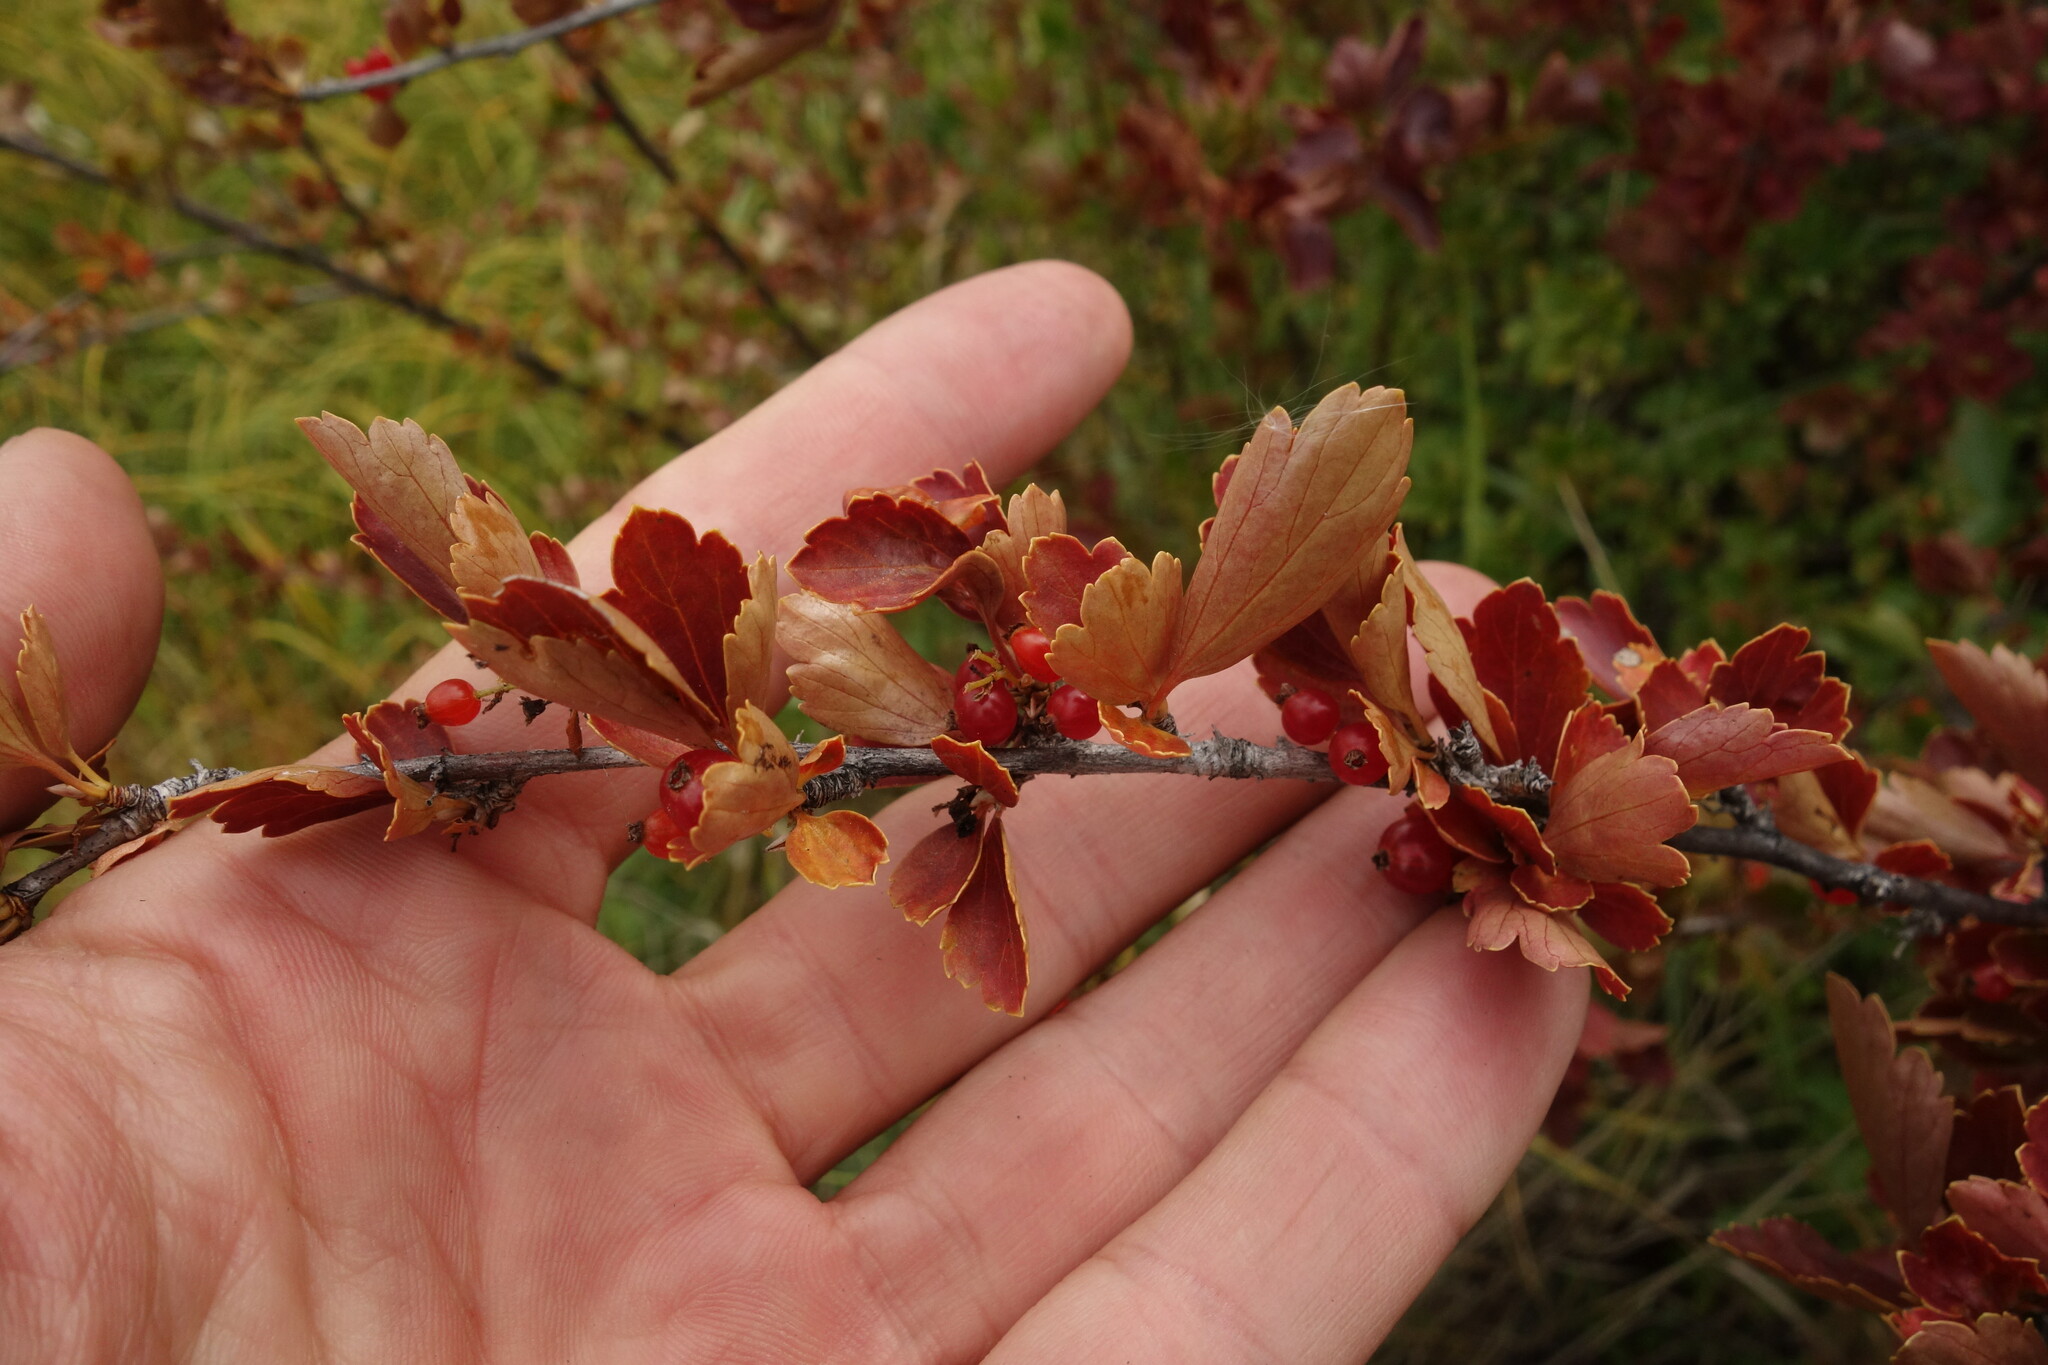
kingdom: Plantae
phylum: Tracheophyta
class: Magnoliopsida
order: Saxifragales
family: Grossulariaceae
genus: Ribes
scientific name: Ribes diacanthum
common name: Siberian currant
